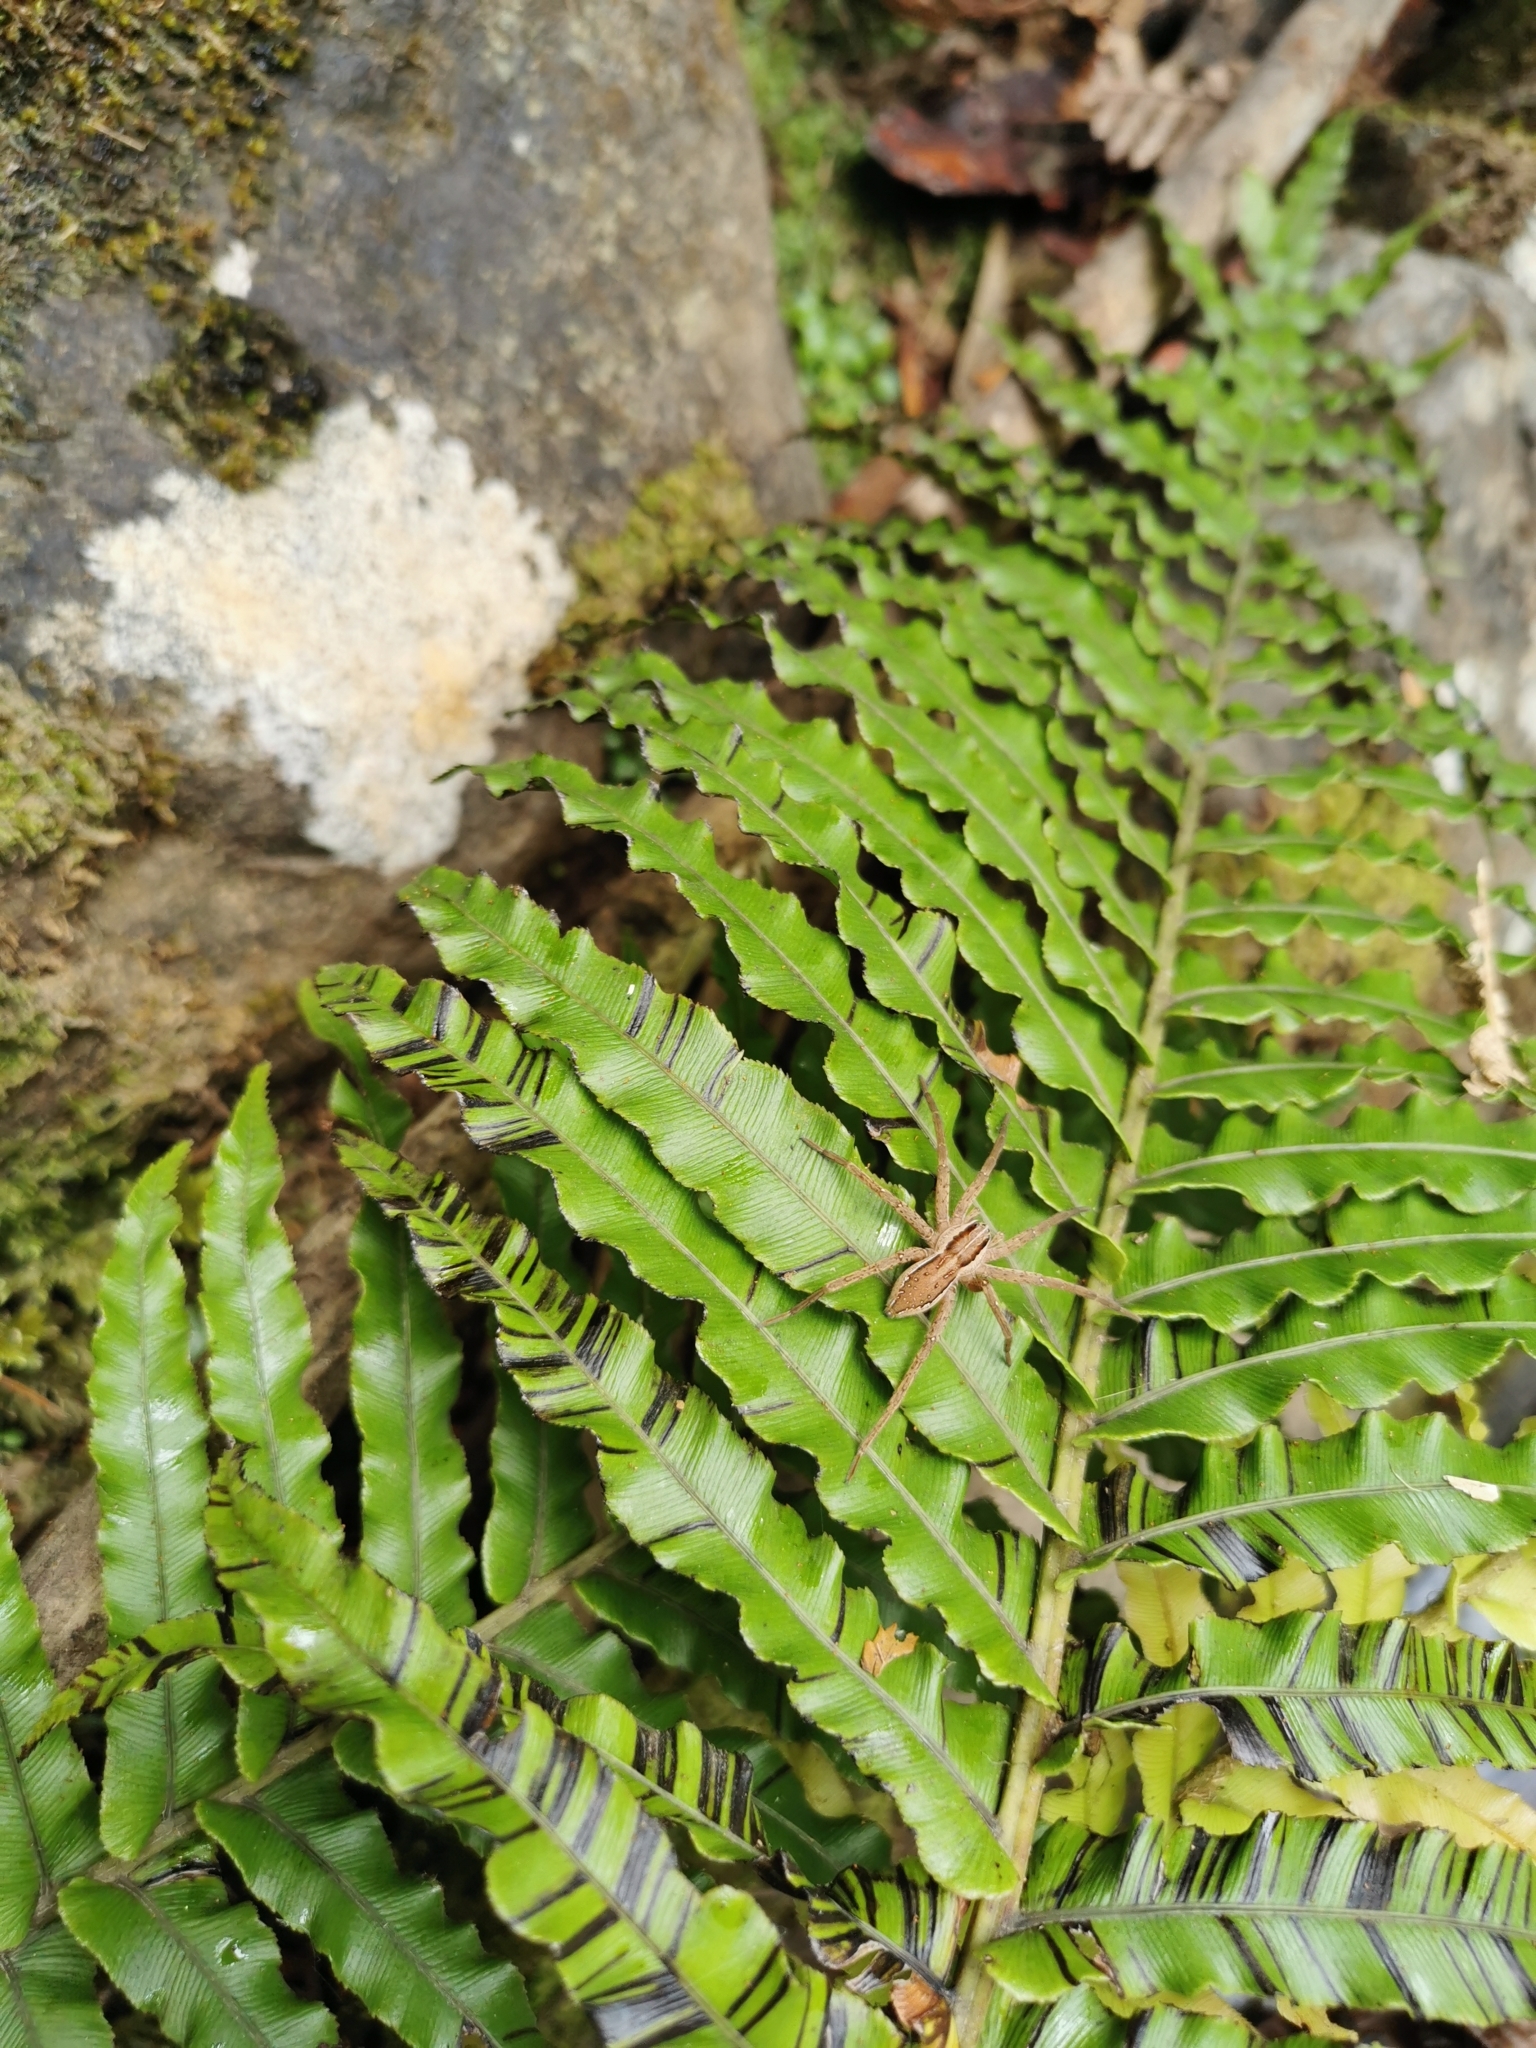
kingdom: Animalia
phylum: Arthropoda
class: Arachnida
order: Araneae
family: Pisauridae
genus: Dolomedes
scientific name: Dolomedes minor
